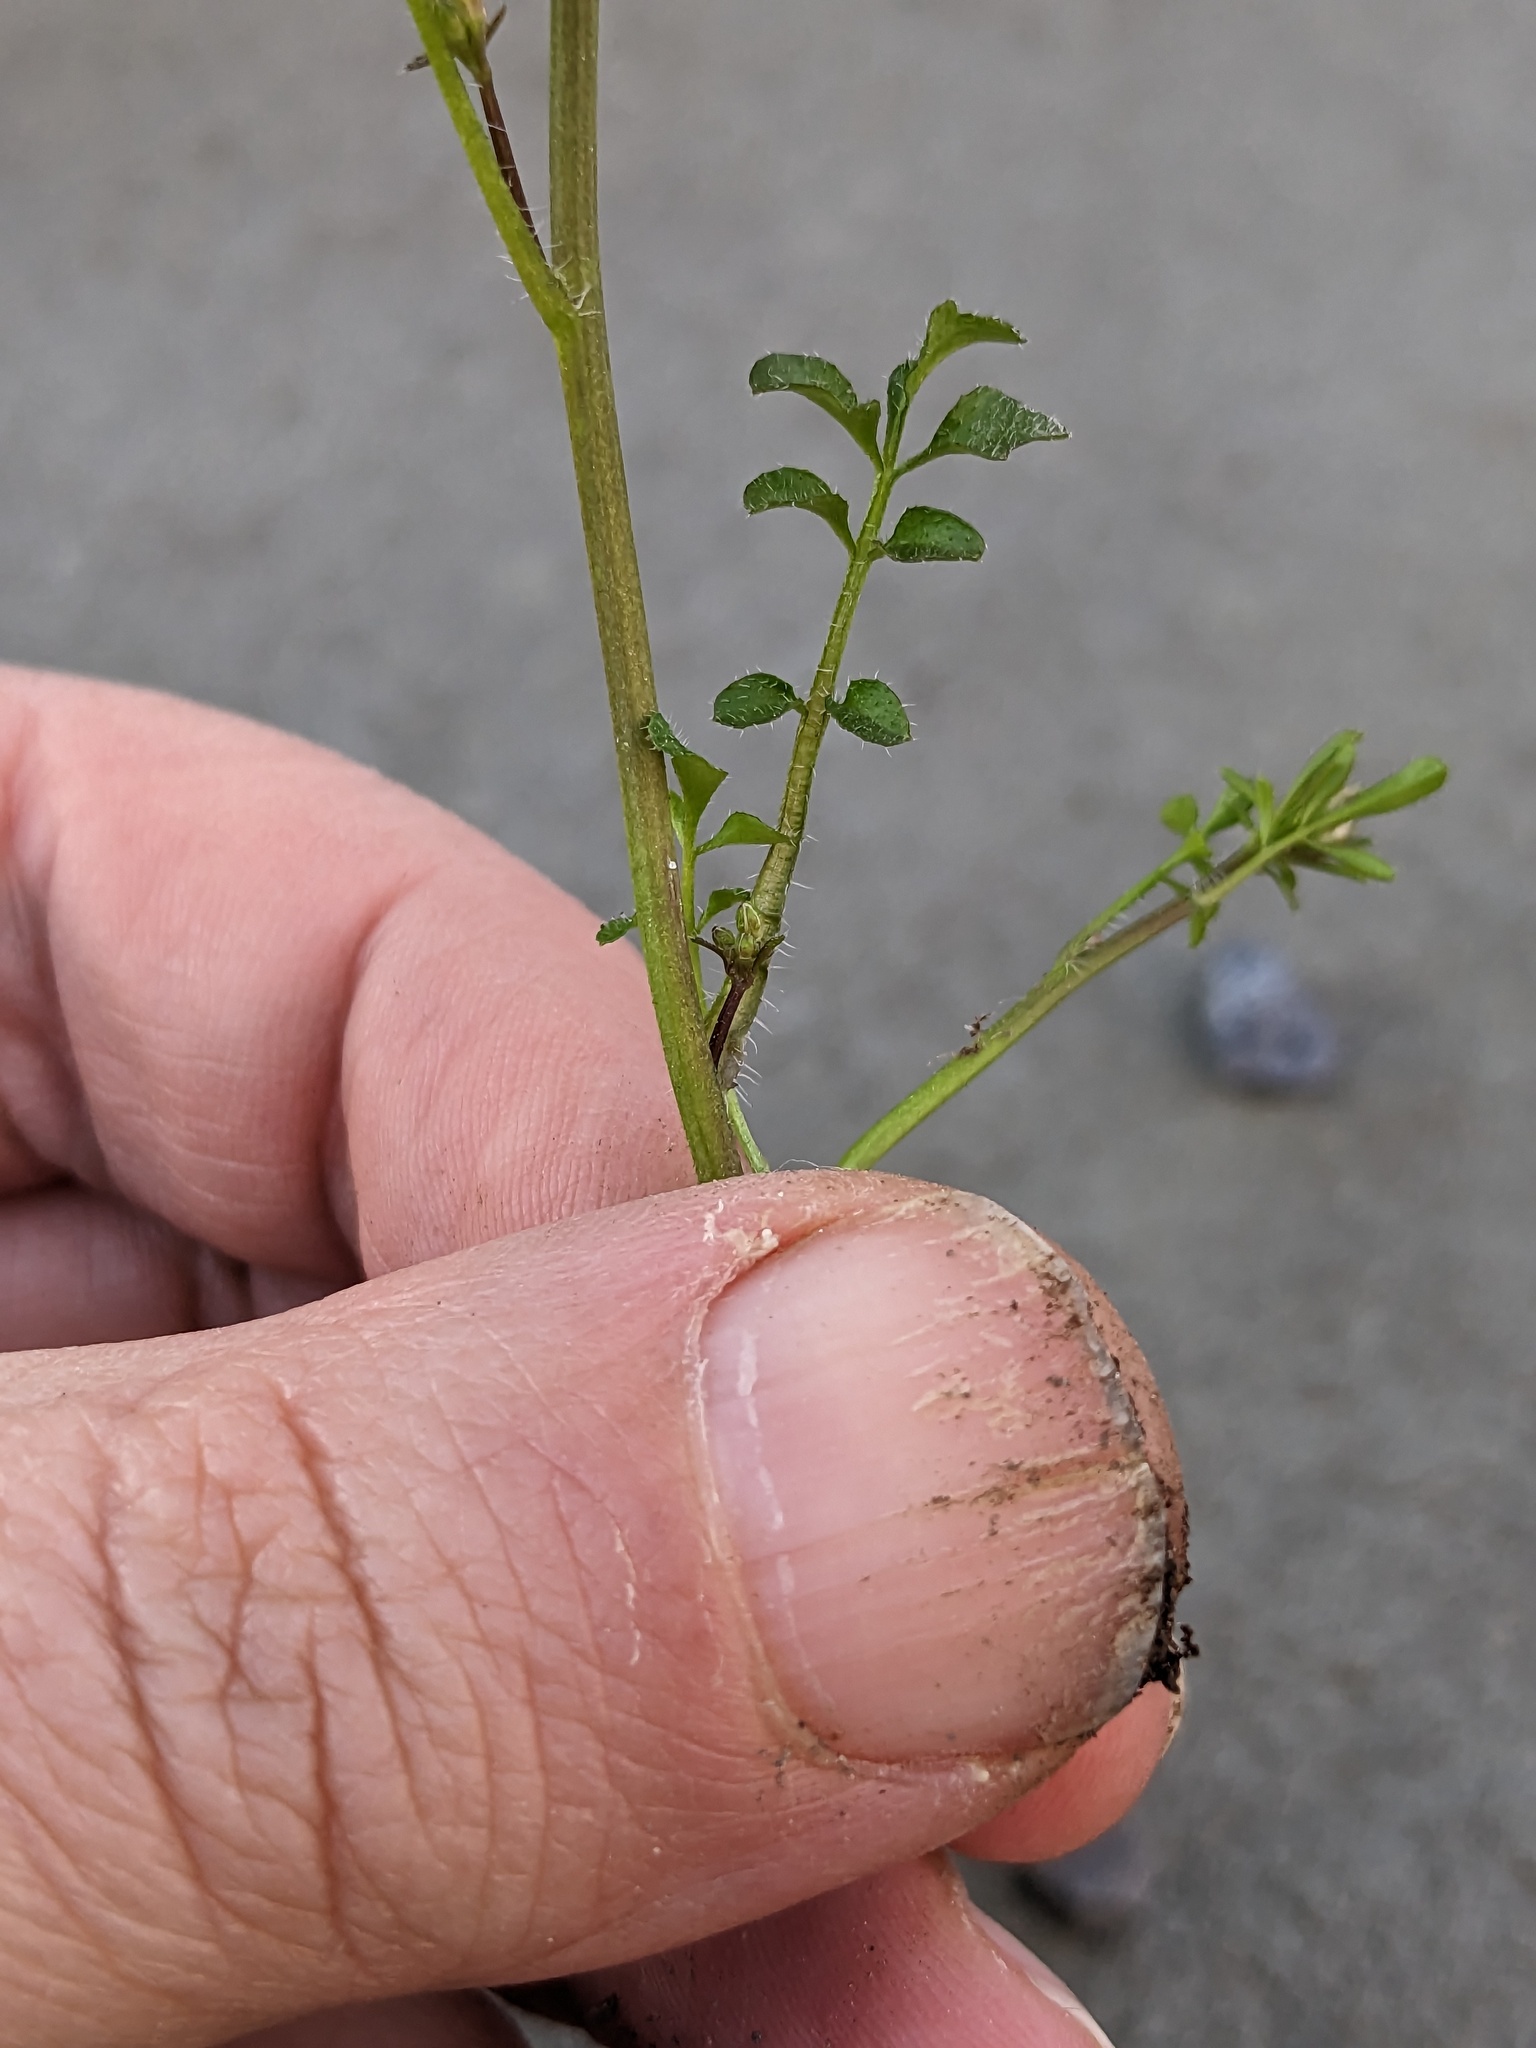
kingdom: Plantae
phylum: Tracheophyta
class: Magnoliopsida
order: Brassicales
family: Brassicaceae
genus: Cardamine
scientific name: Cardamine hirsuta
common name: Hairy bittercress
